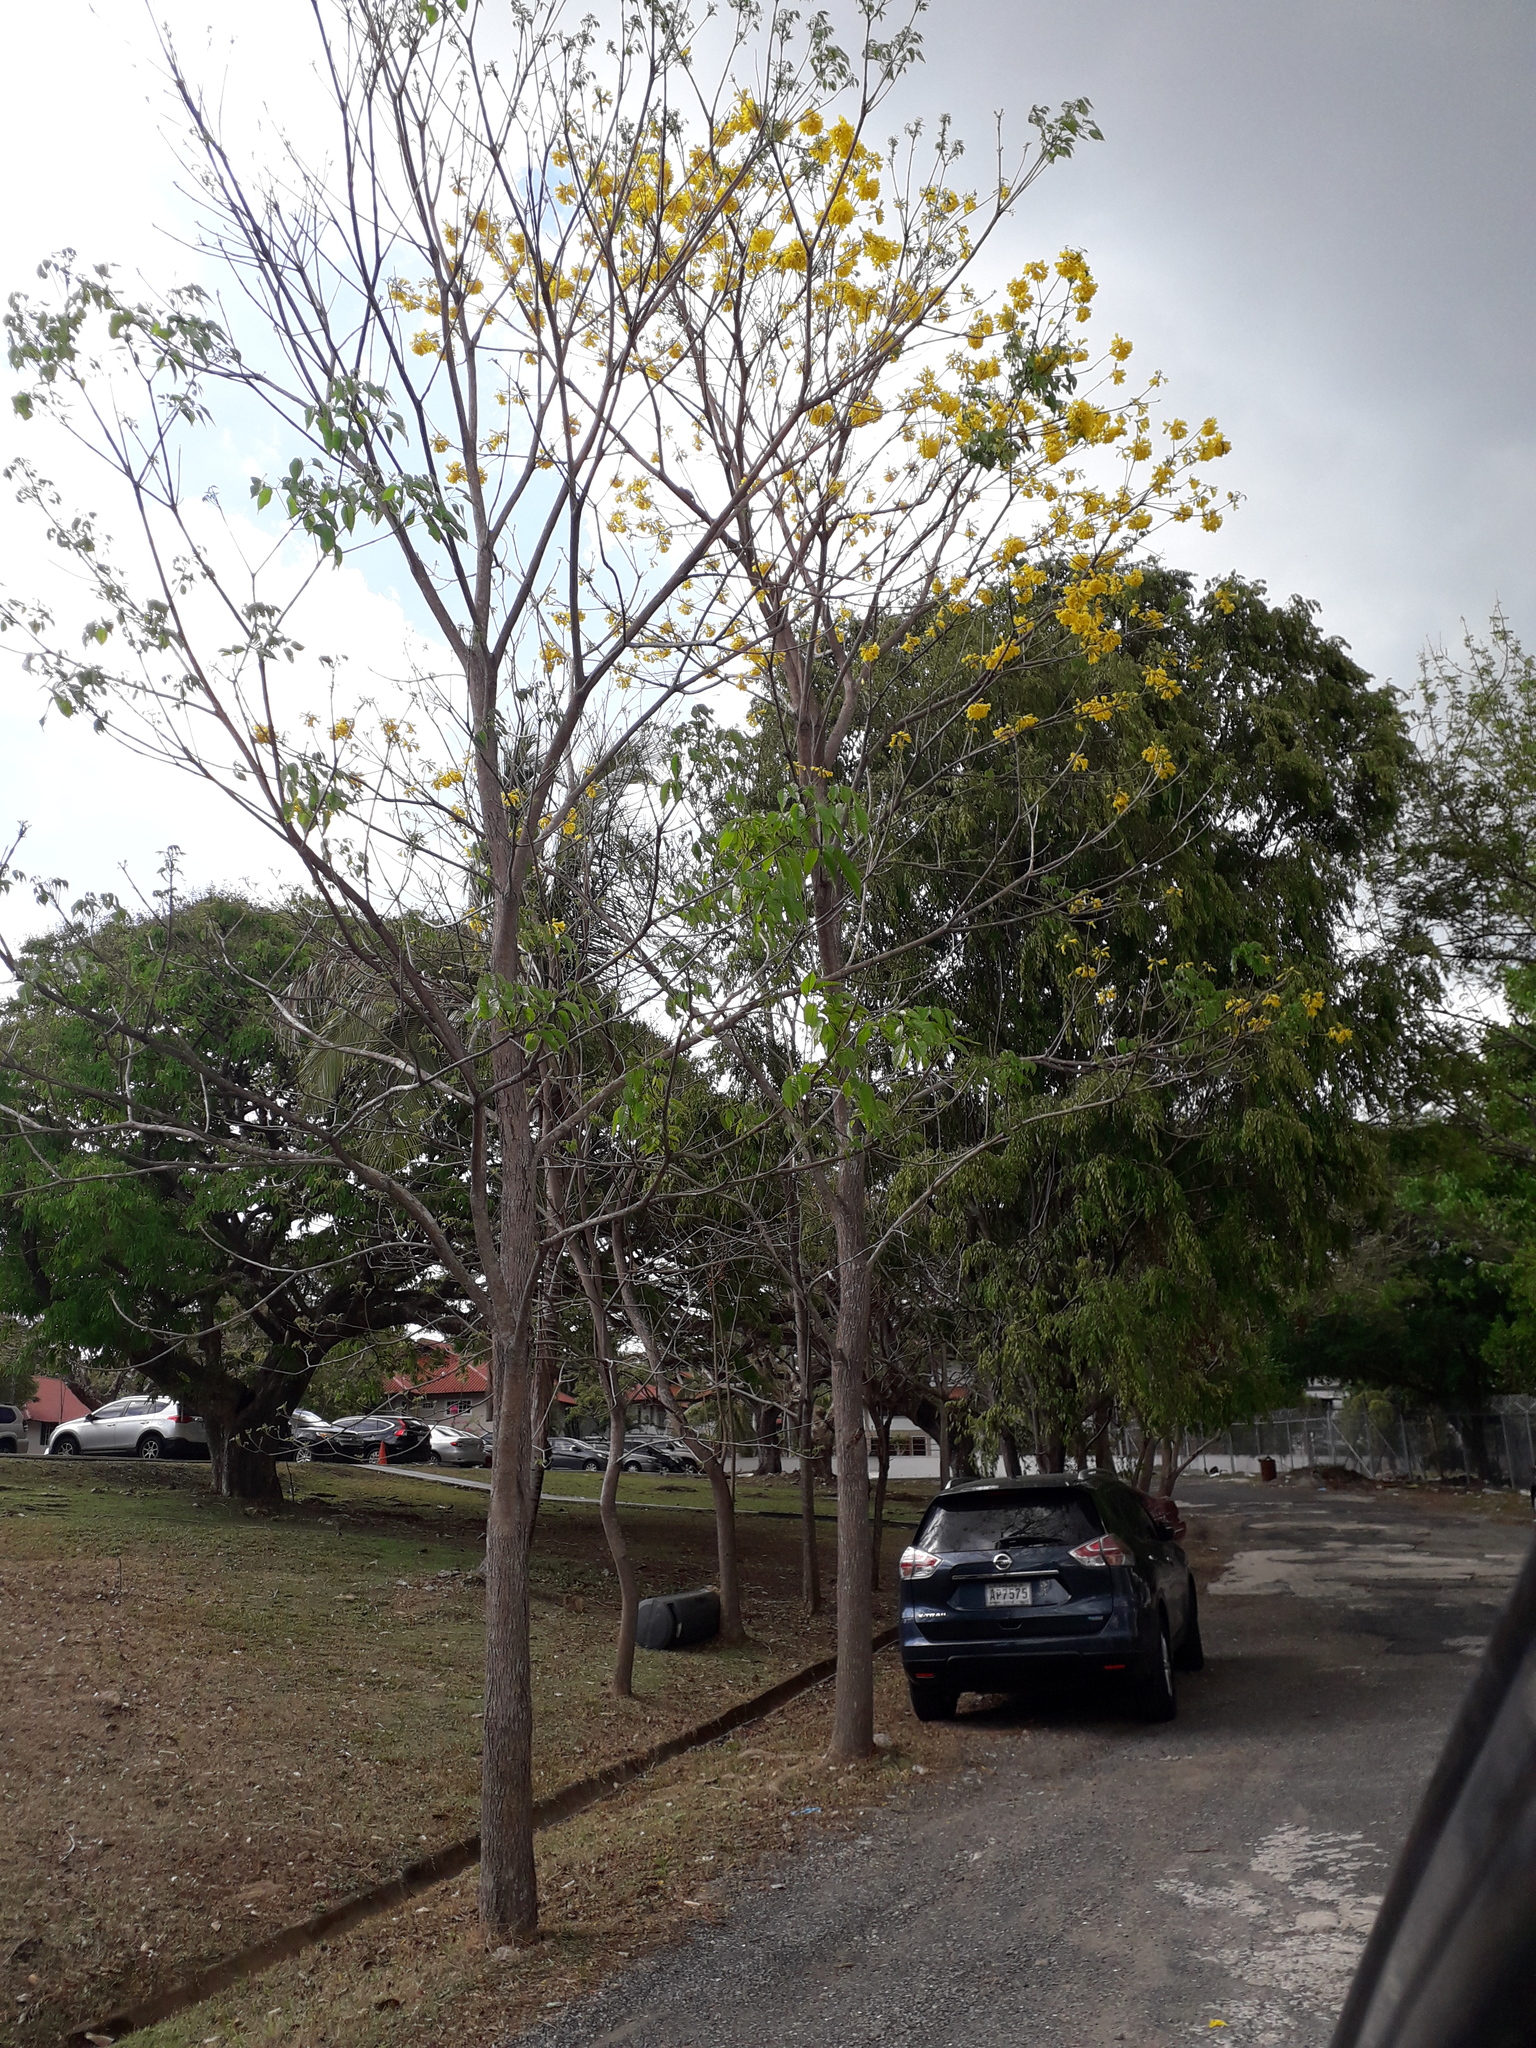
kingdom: Plantae
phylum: Tracheophyta
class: Magnoliopsida
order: Lamiales
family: Bignoniaceae
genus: Handroanthus
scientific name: Handroanthus guayacan
